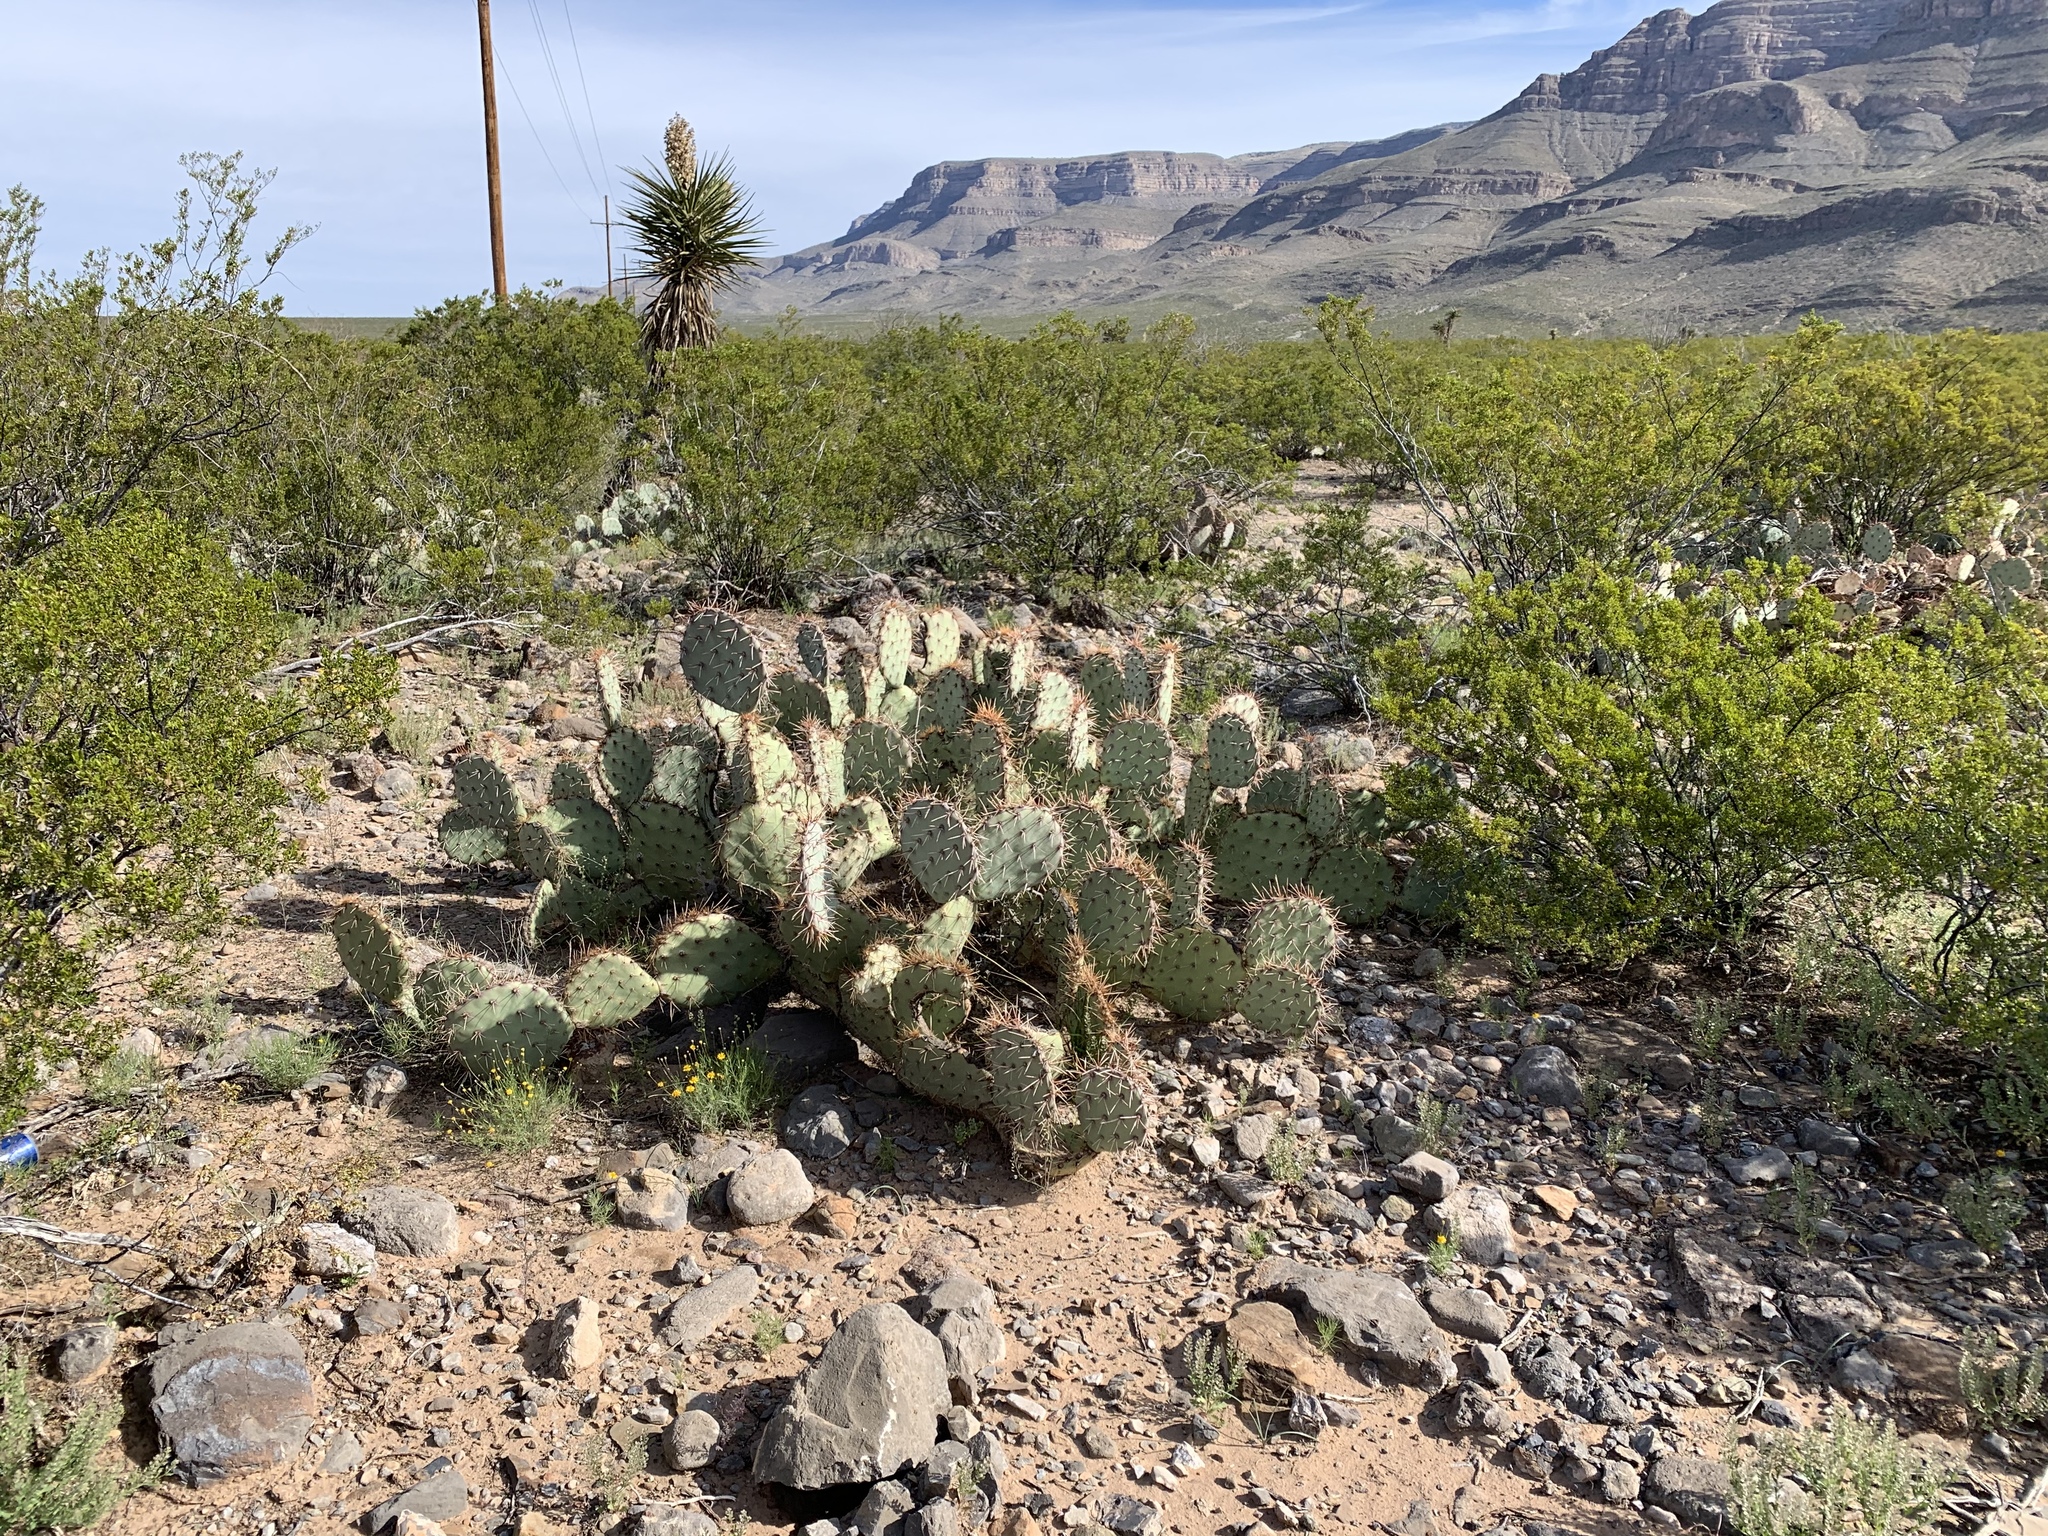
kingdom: Plantae
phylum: Tracheophyta
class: Magnoliopsida
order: Caryophyllales
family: Cactaceae
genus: Opuntia
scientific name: Opuntia engelmannii
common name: Cactus-apple
